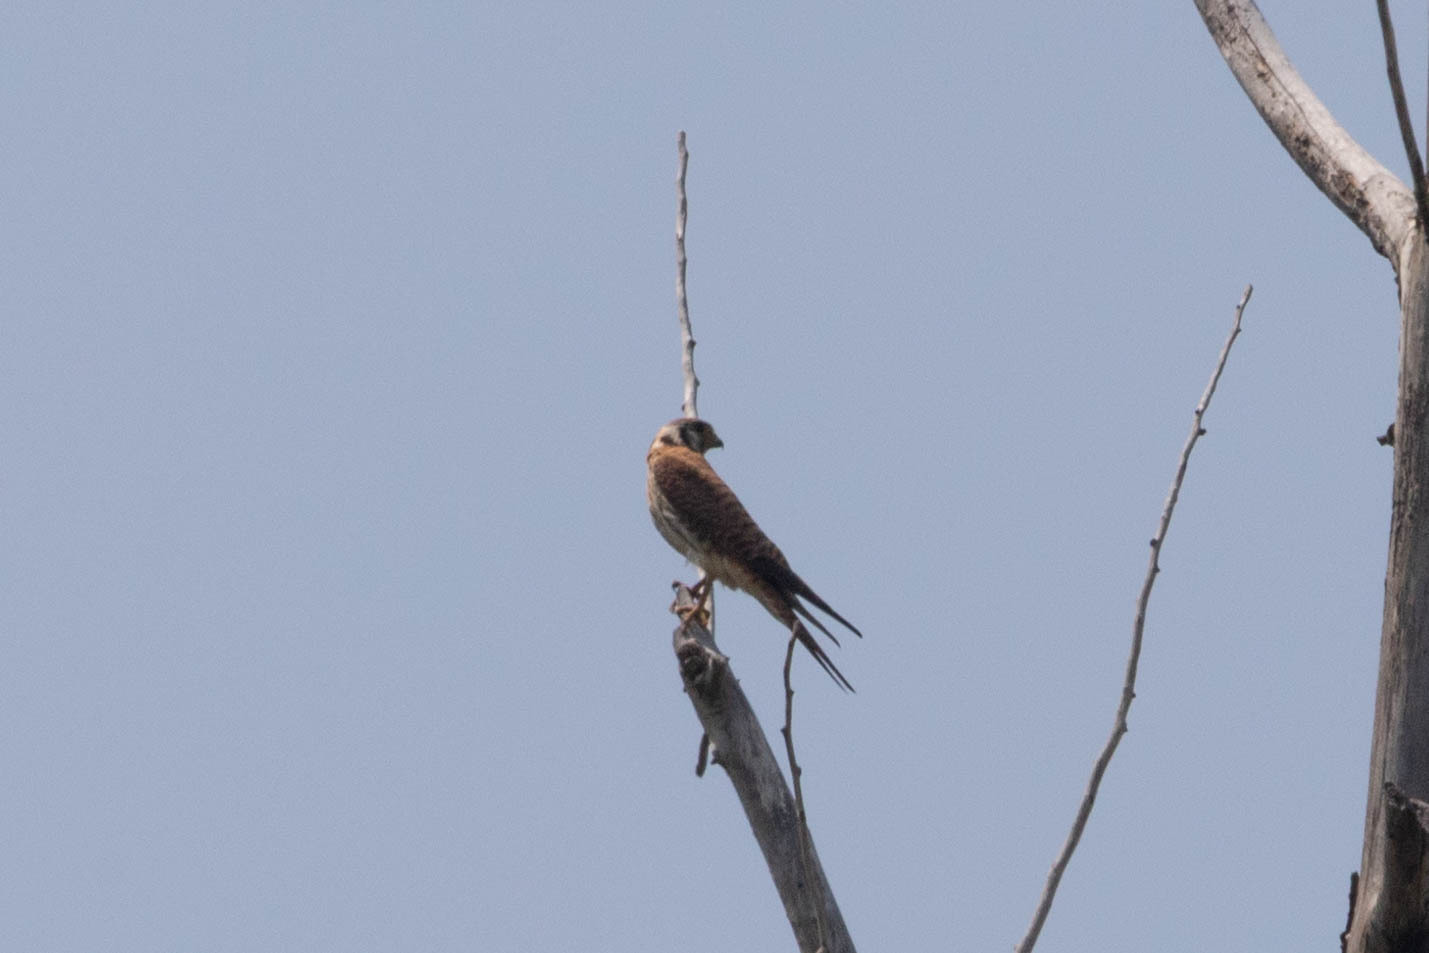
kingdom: Animalia
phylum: Chordata
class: Aves
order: Falconiformes
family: Falconidae
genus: Falco
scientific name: Falco sparverius
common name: American kestrel
